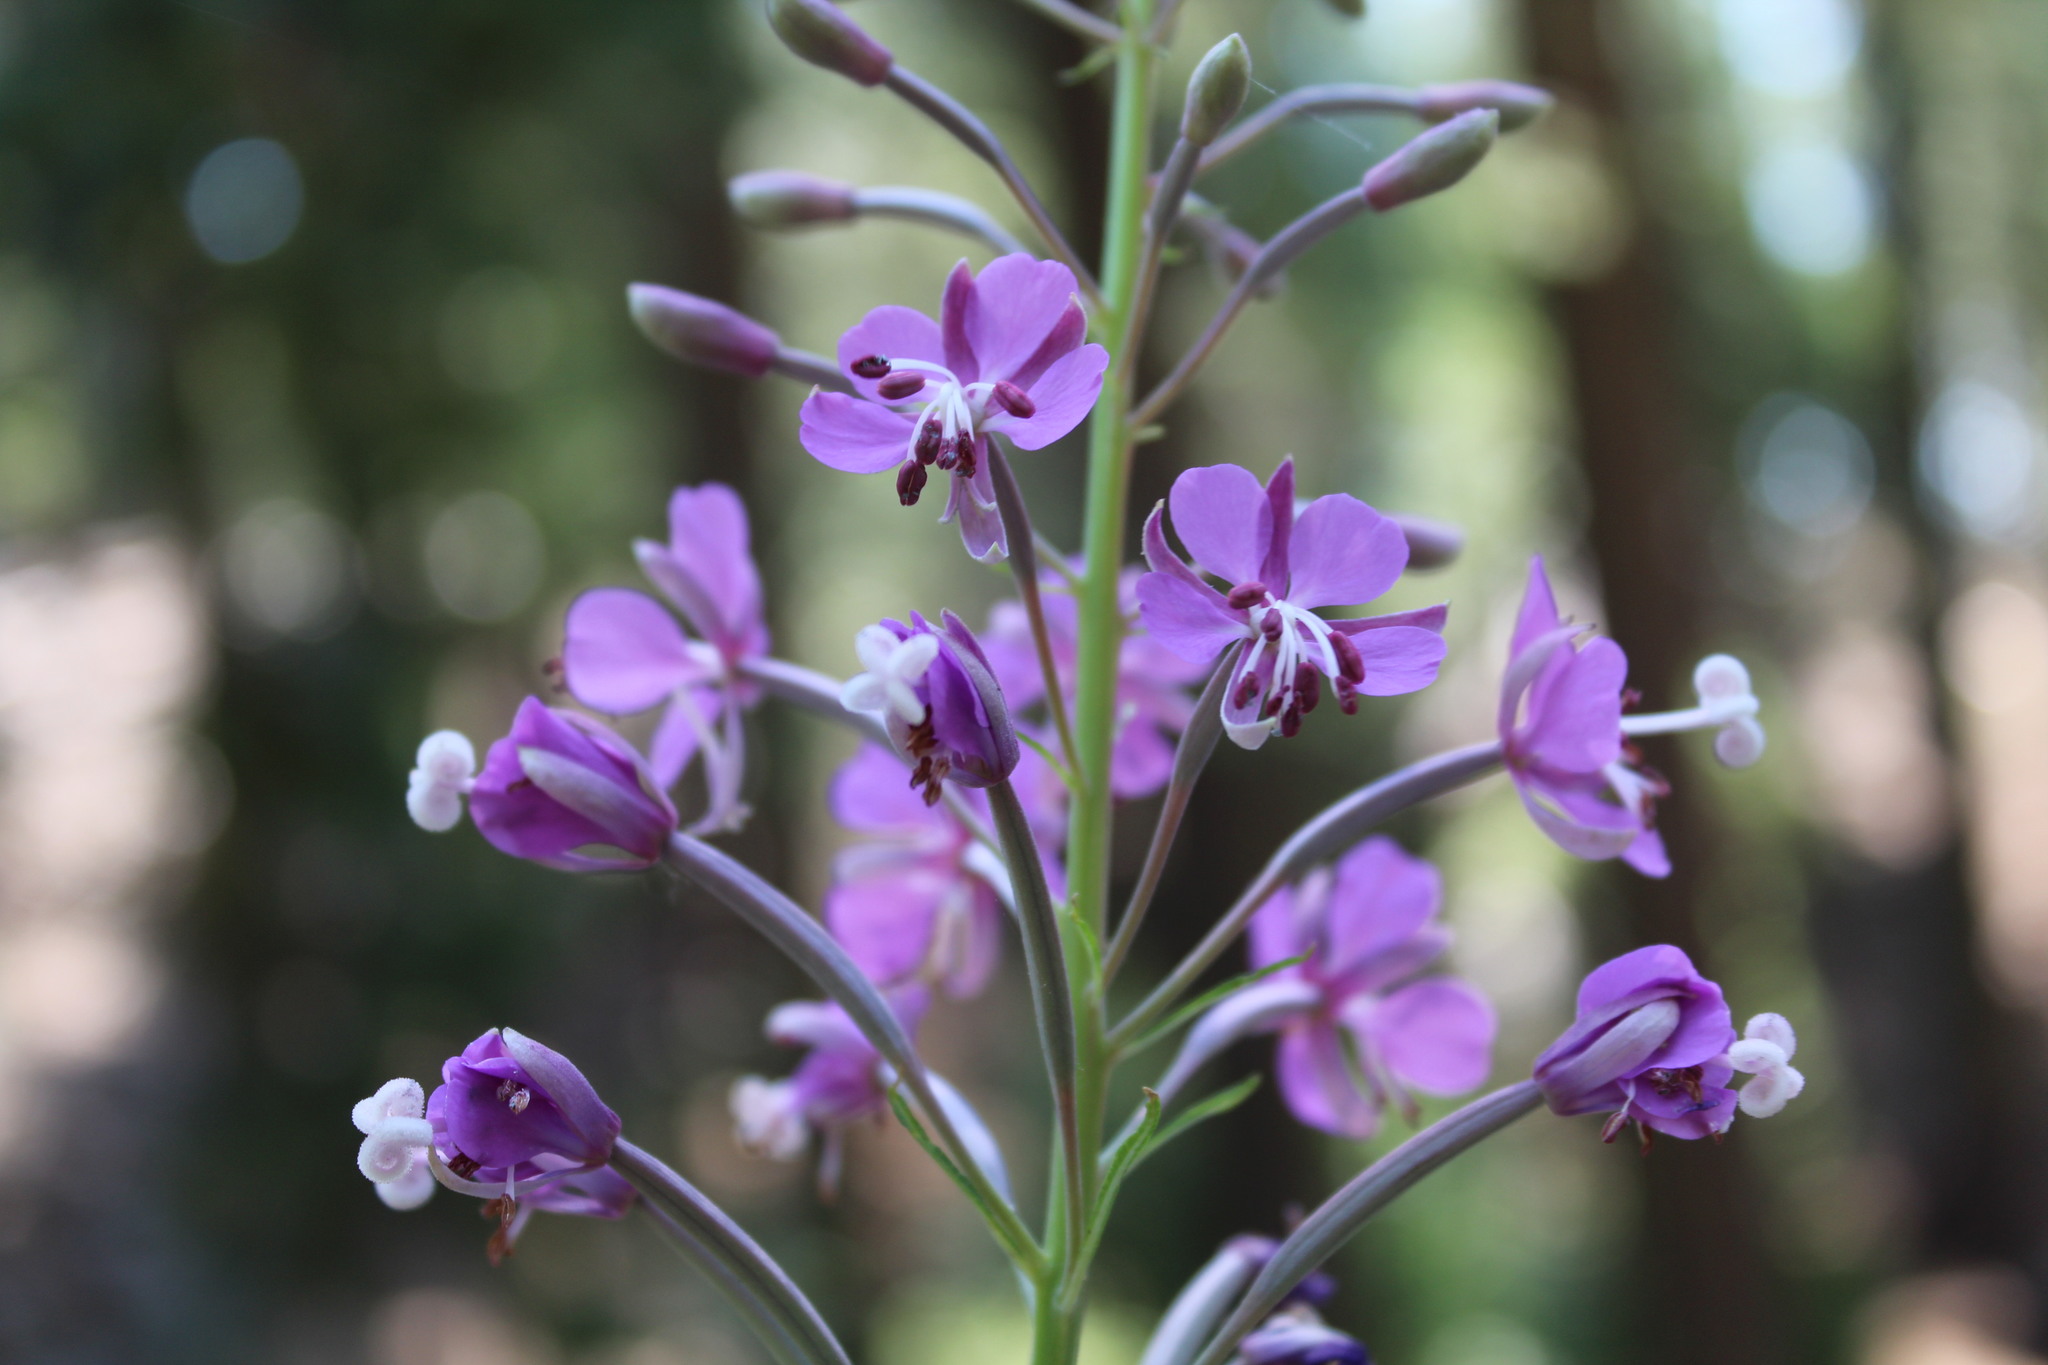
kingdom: Plantae
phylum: Tracheophyta
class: Magnoliopsida
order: Myrtales
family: Onagraceae
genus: Chamaenerion
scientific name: Chamaenerion angustifolium
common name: Fireweed
